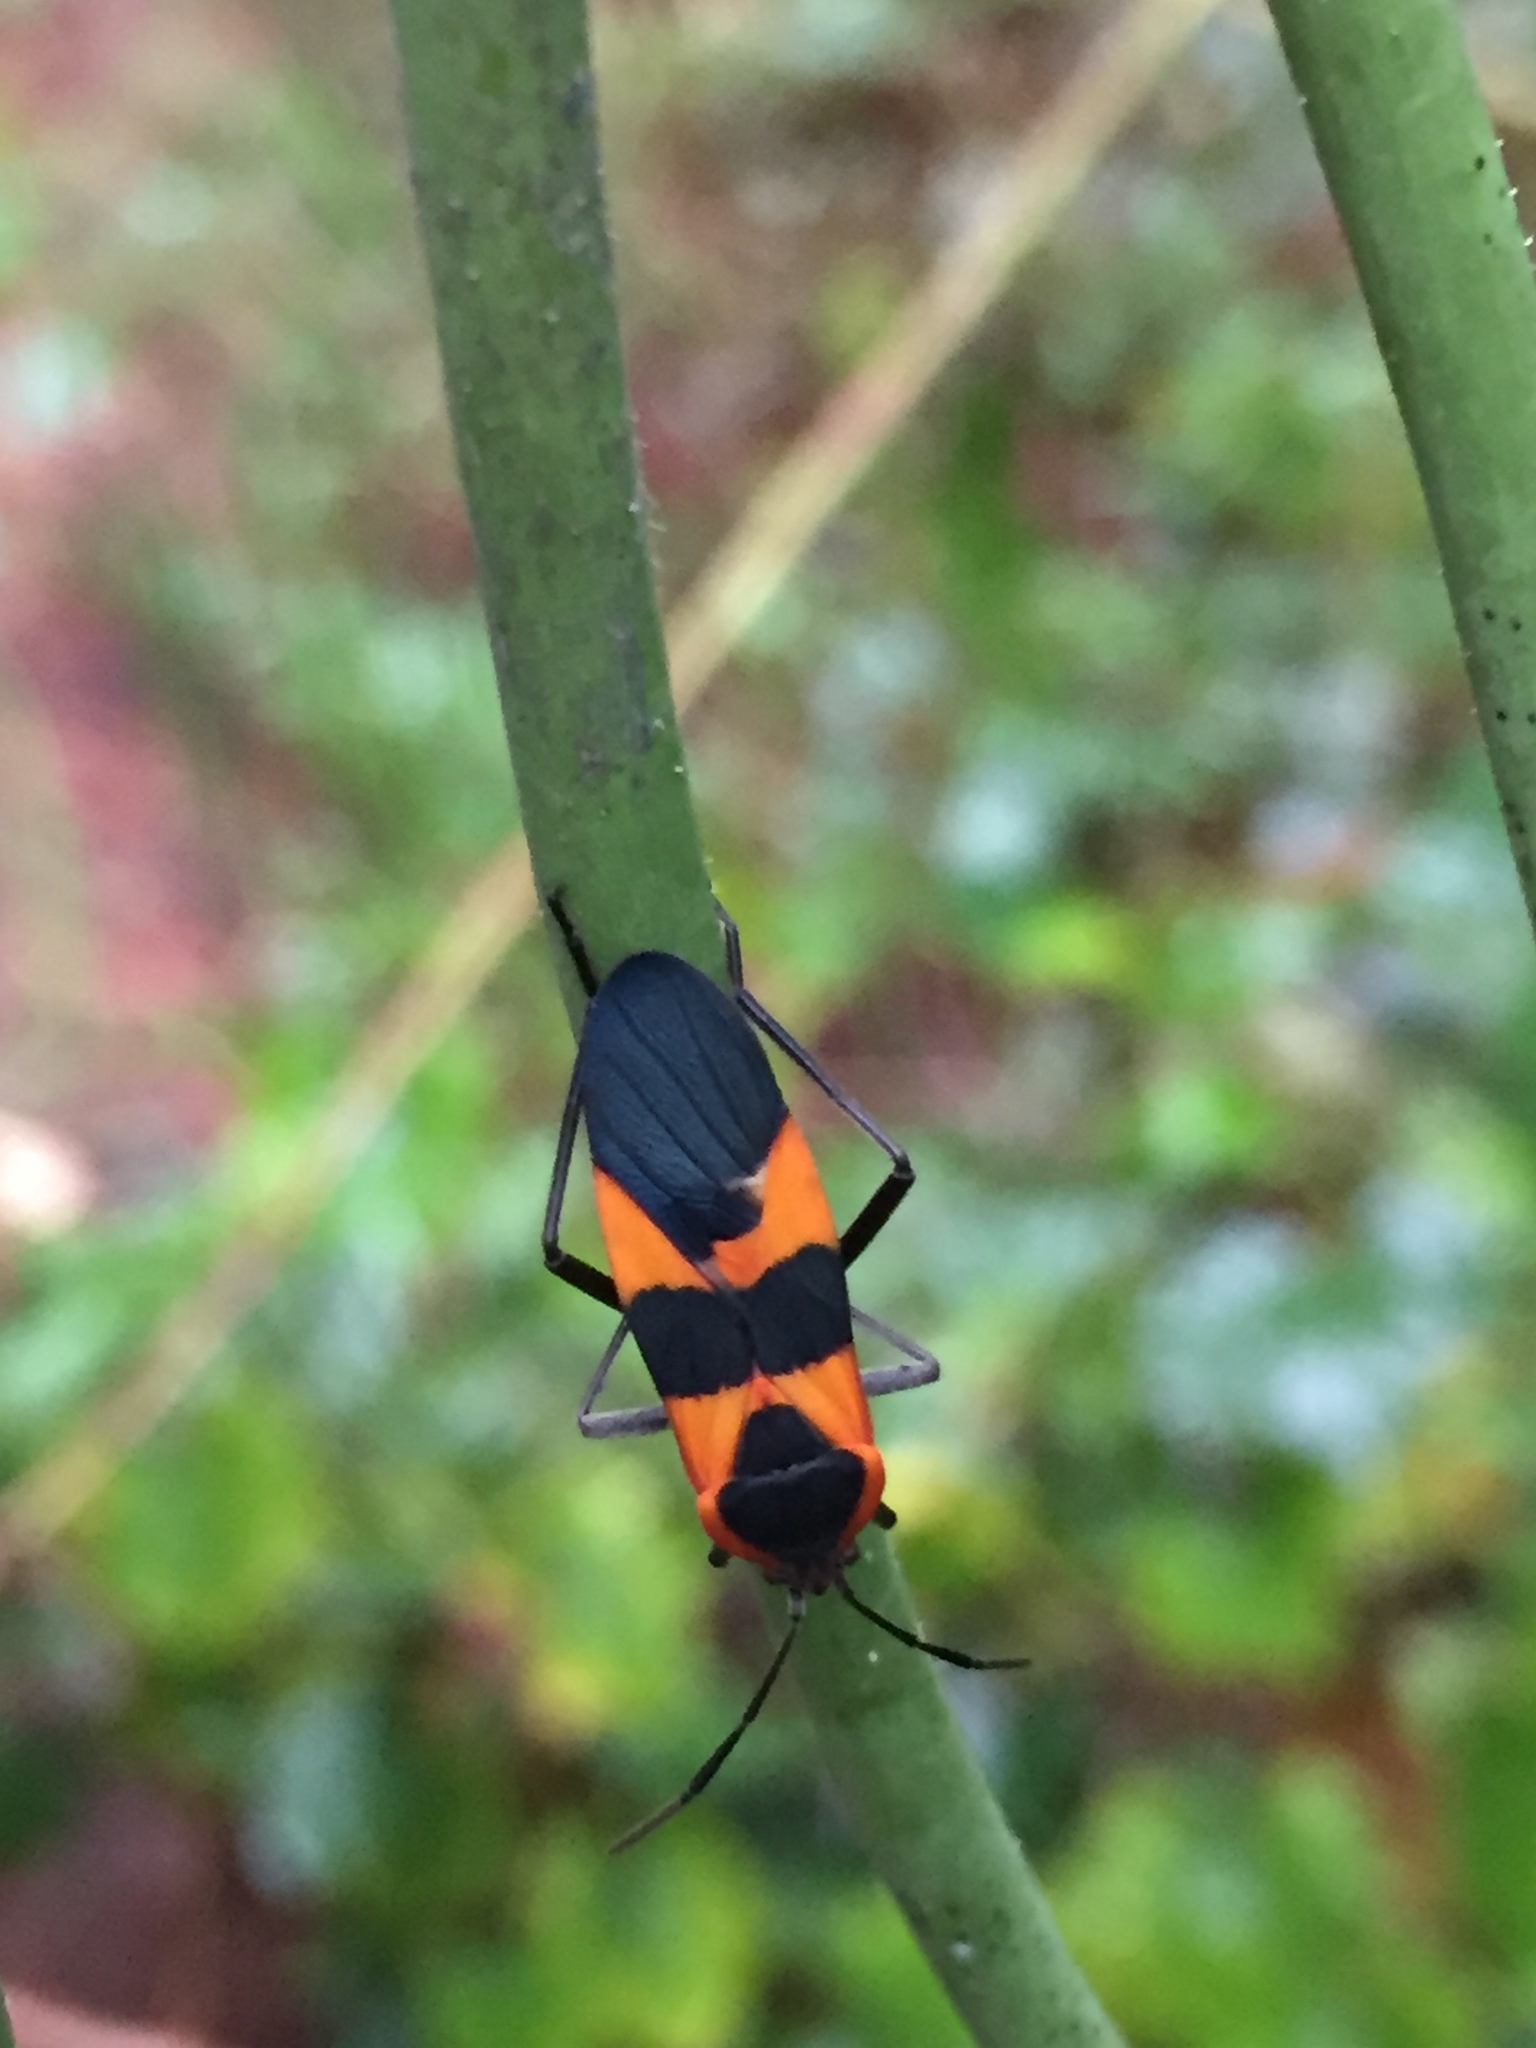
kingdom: Animalia
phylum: Arthropoda
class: Insecta
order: Hemiptera
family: Lygaeidae
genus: Oncopeltus
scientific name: Oncopeltus fasciatus
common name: Large milkweed bug
